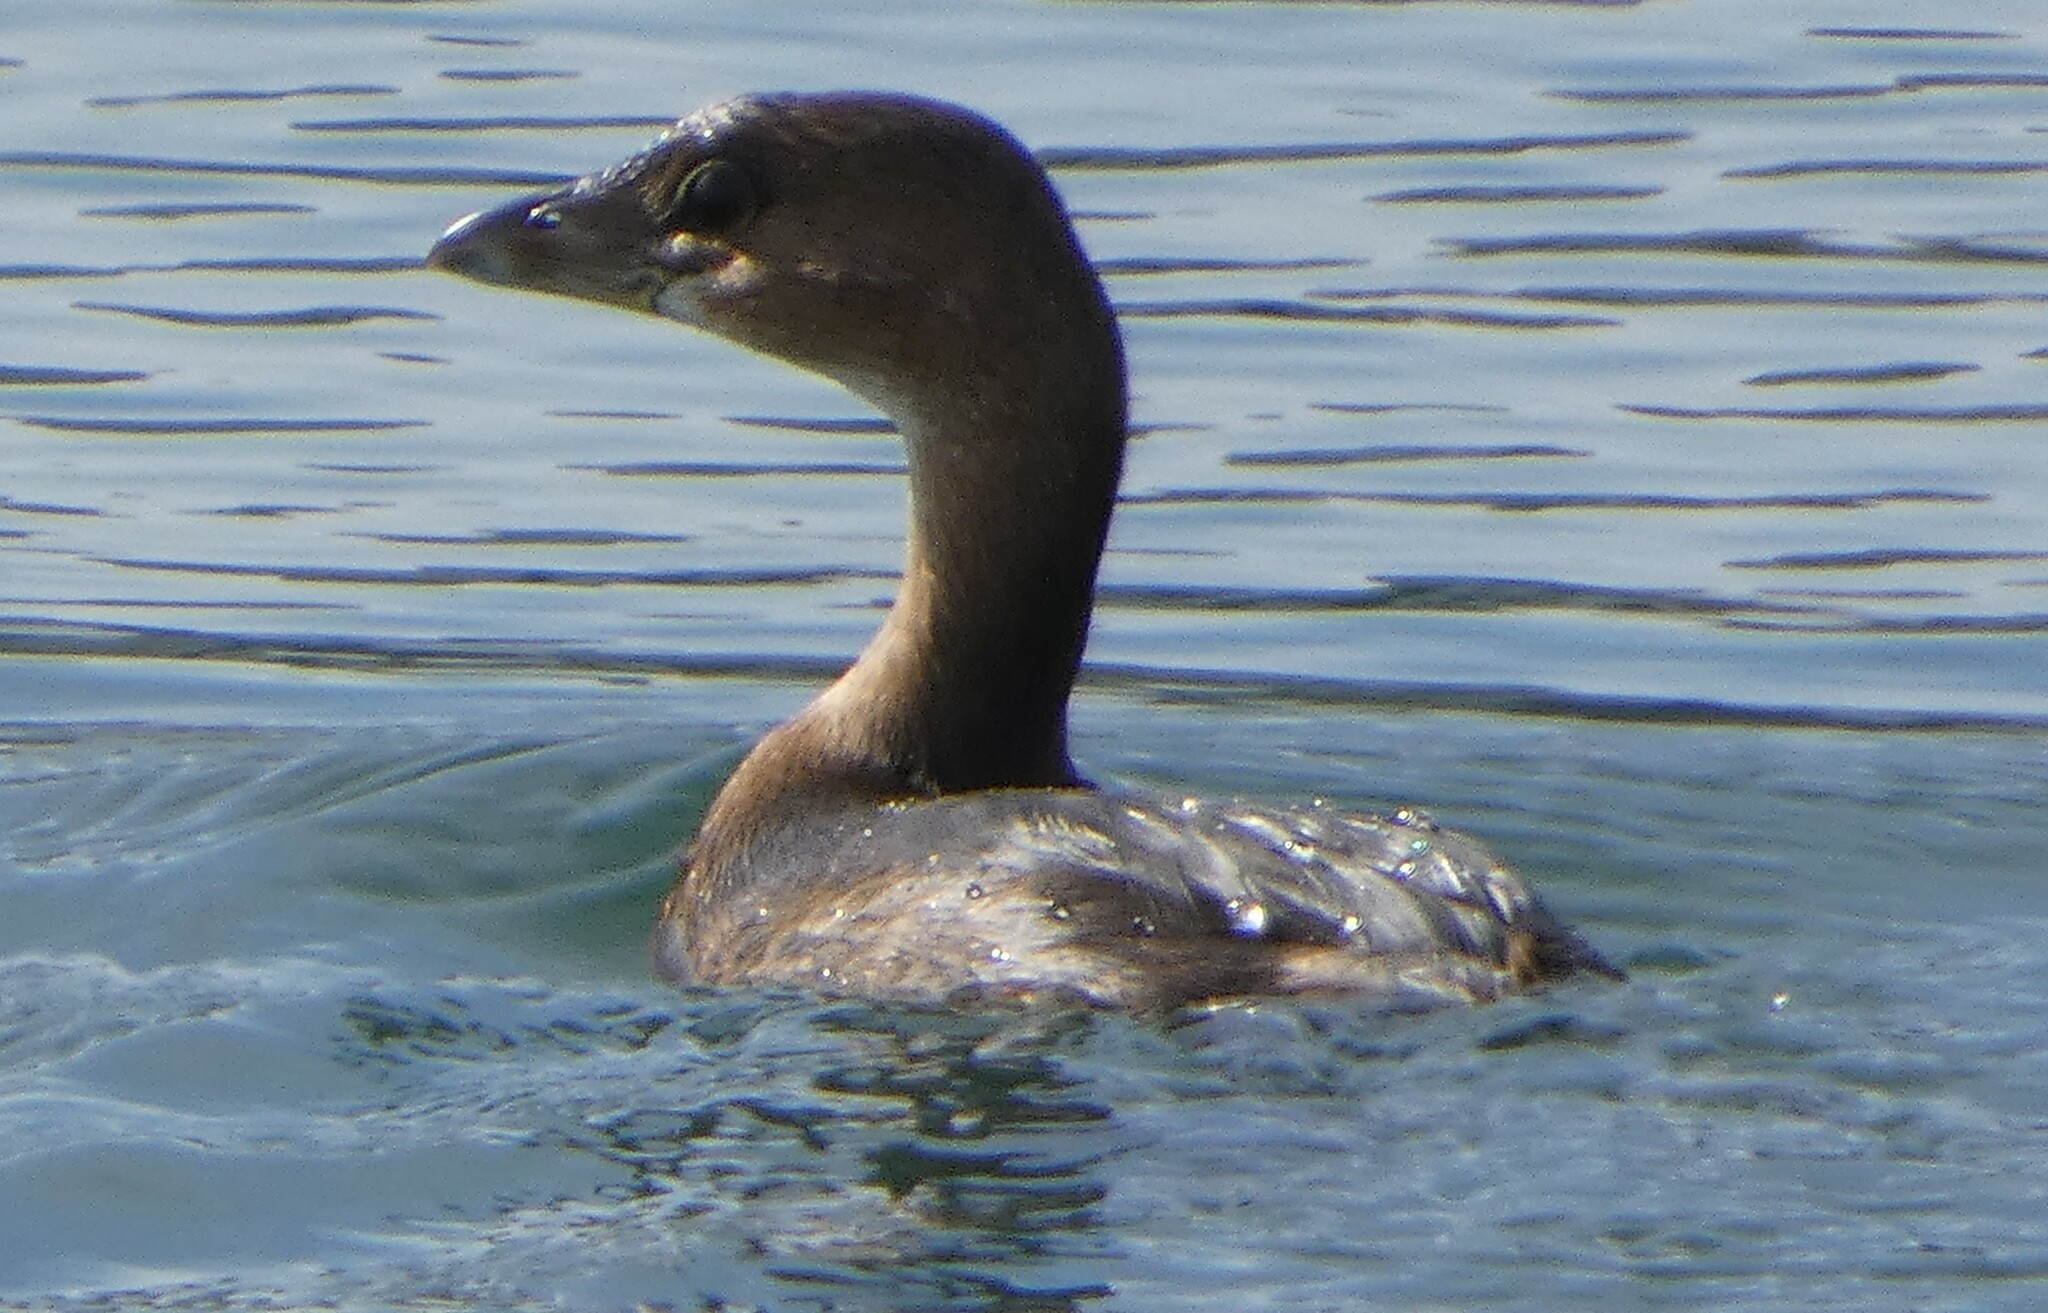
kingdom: Animalia
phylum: Chordata
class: Aves
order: Podicipediformes
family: Podicipedidae
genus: Podilymbus
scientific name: Podilymbus podiceps
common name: Pied-billed grebe
